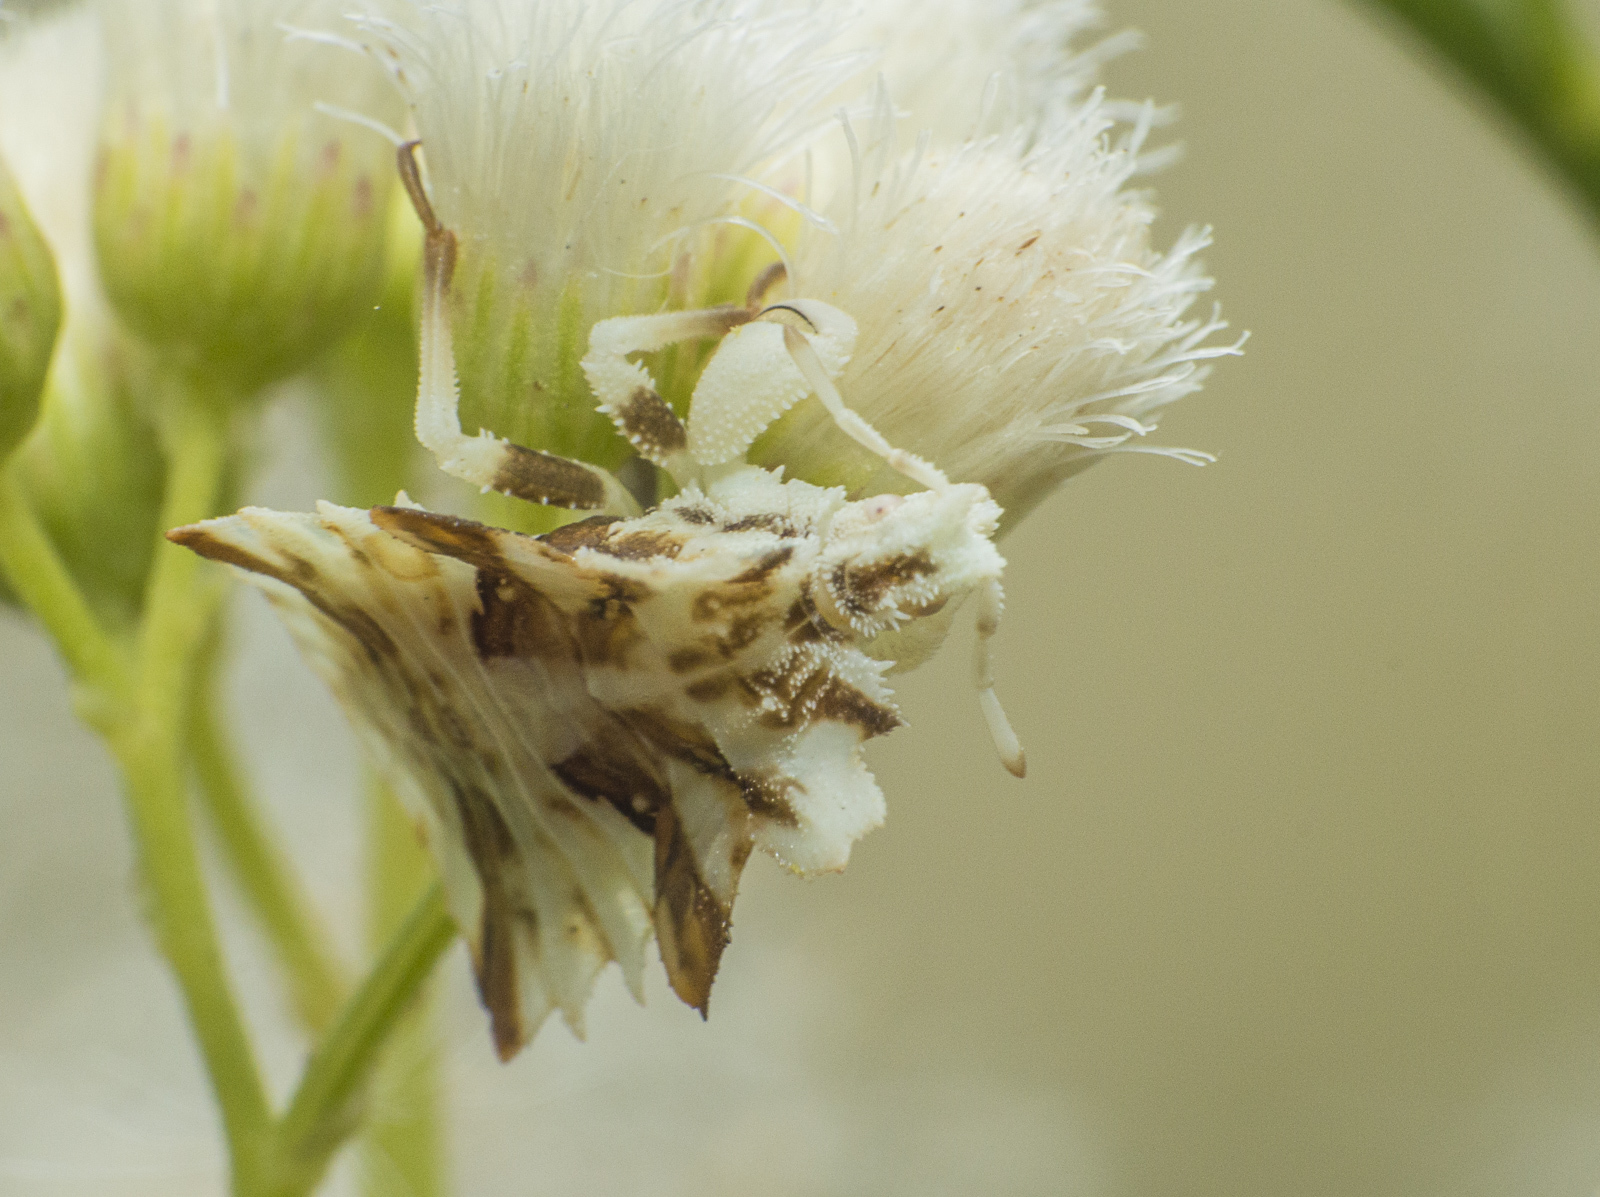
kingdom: Animalia
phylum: Arthropoda
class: Insecta
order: Hemiptera
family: Reduviidae
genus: Phymata
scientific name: Phymata fortificata
